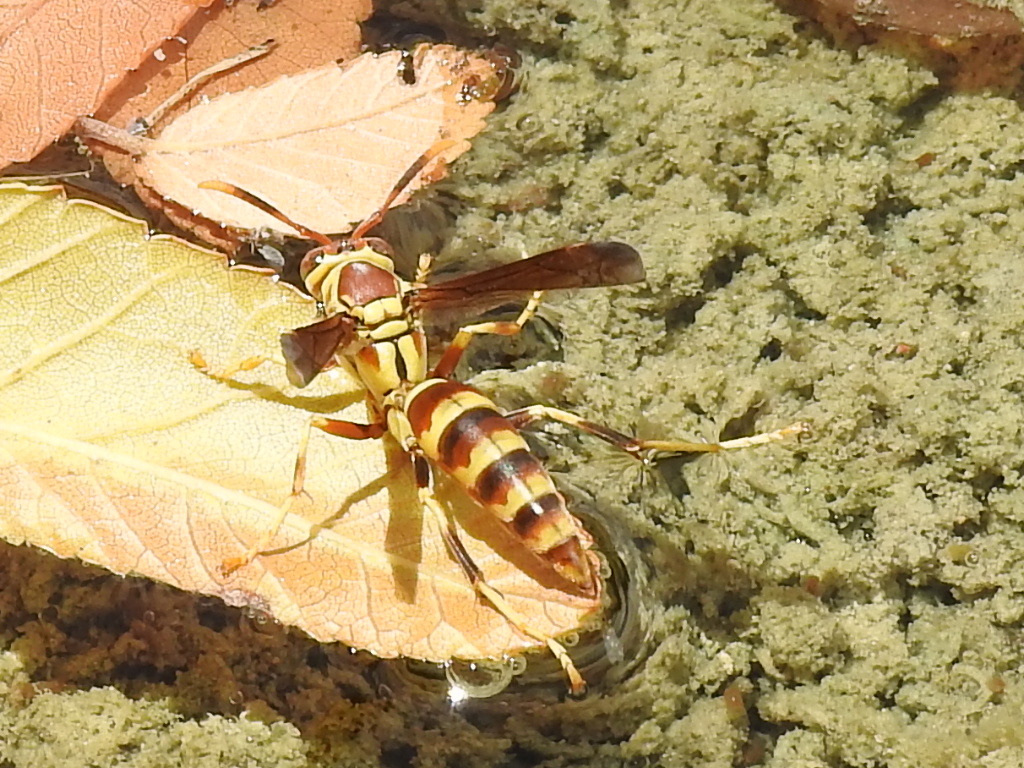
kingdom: Animalia
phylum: Arthropoda
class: Insecta
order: Hymenoptera
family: Eumenidae
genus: Polistes
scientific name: Polistes exclamans
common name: Paper wasp
